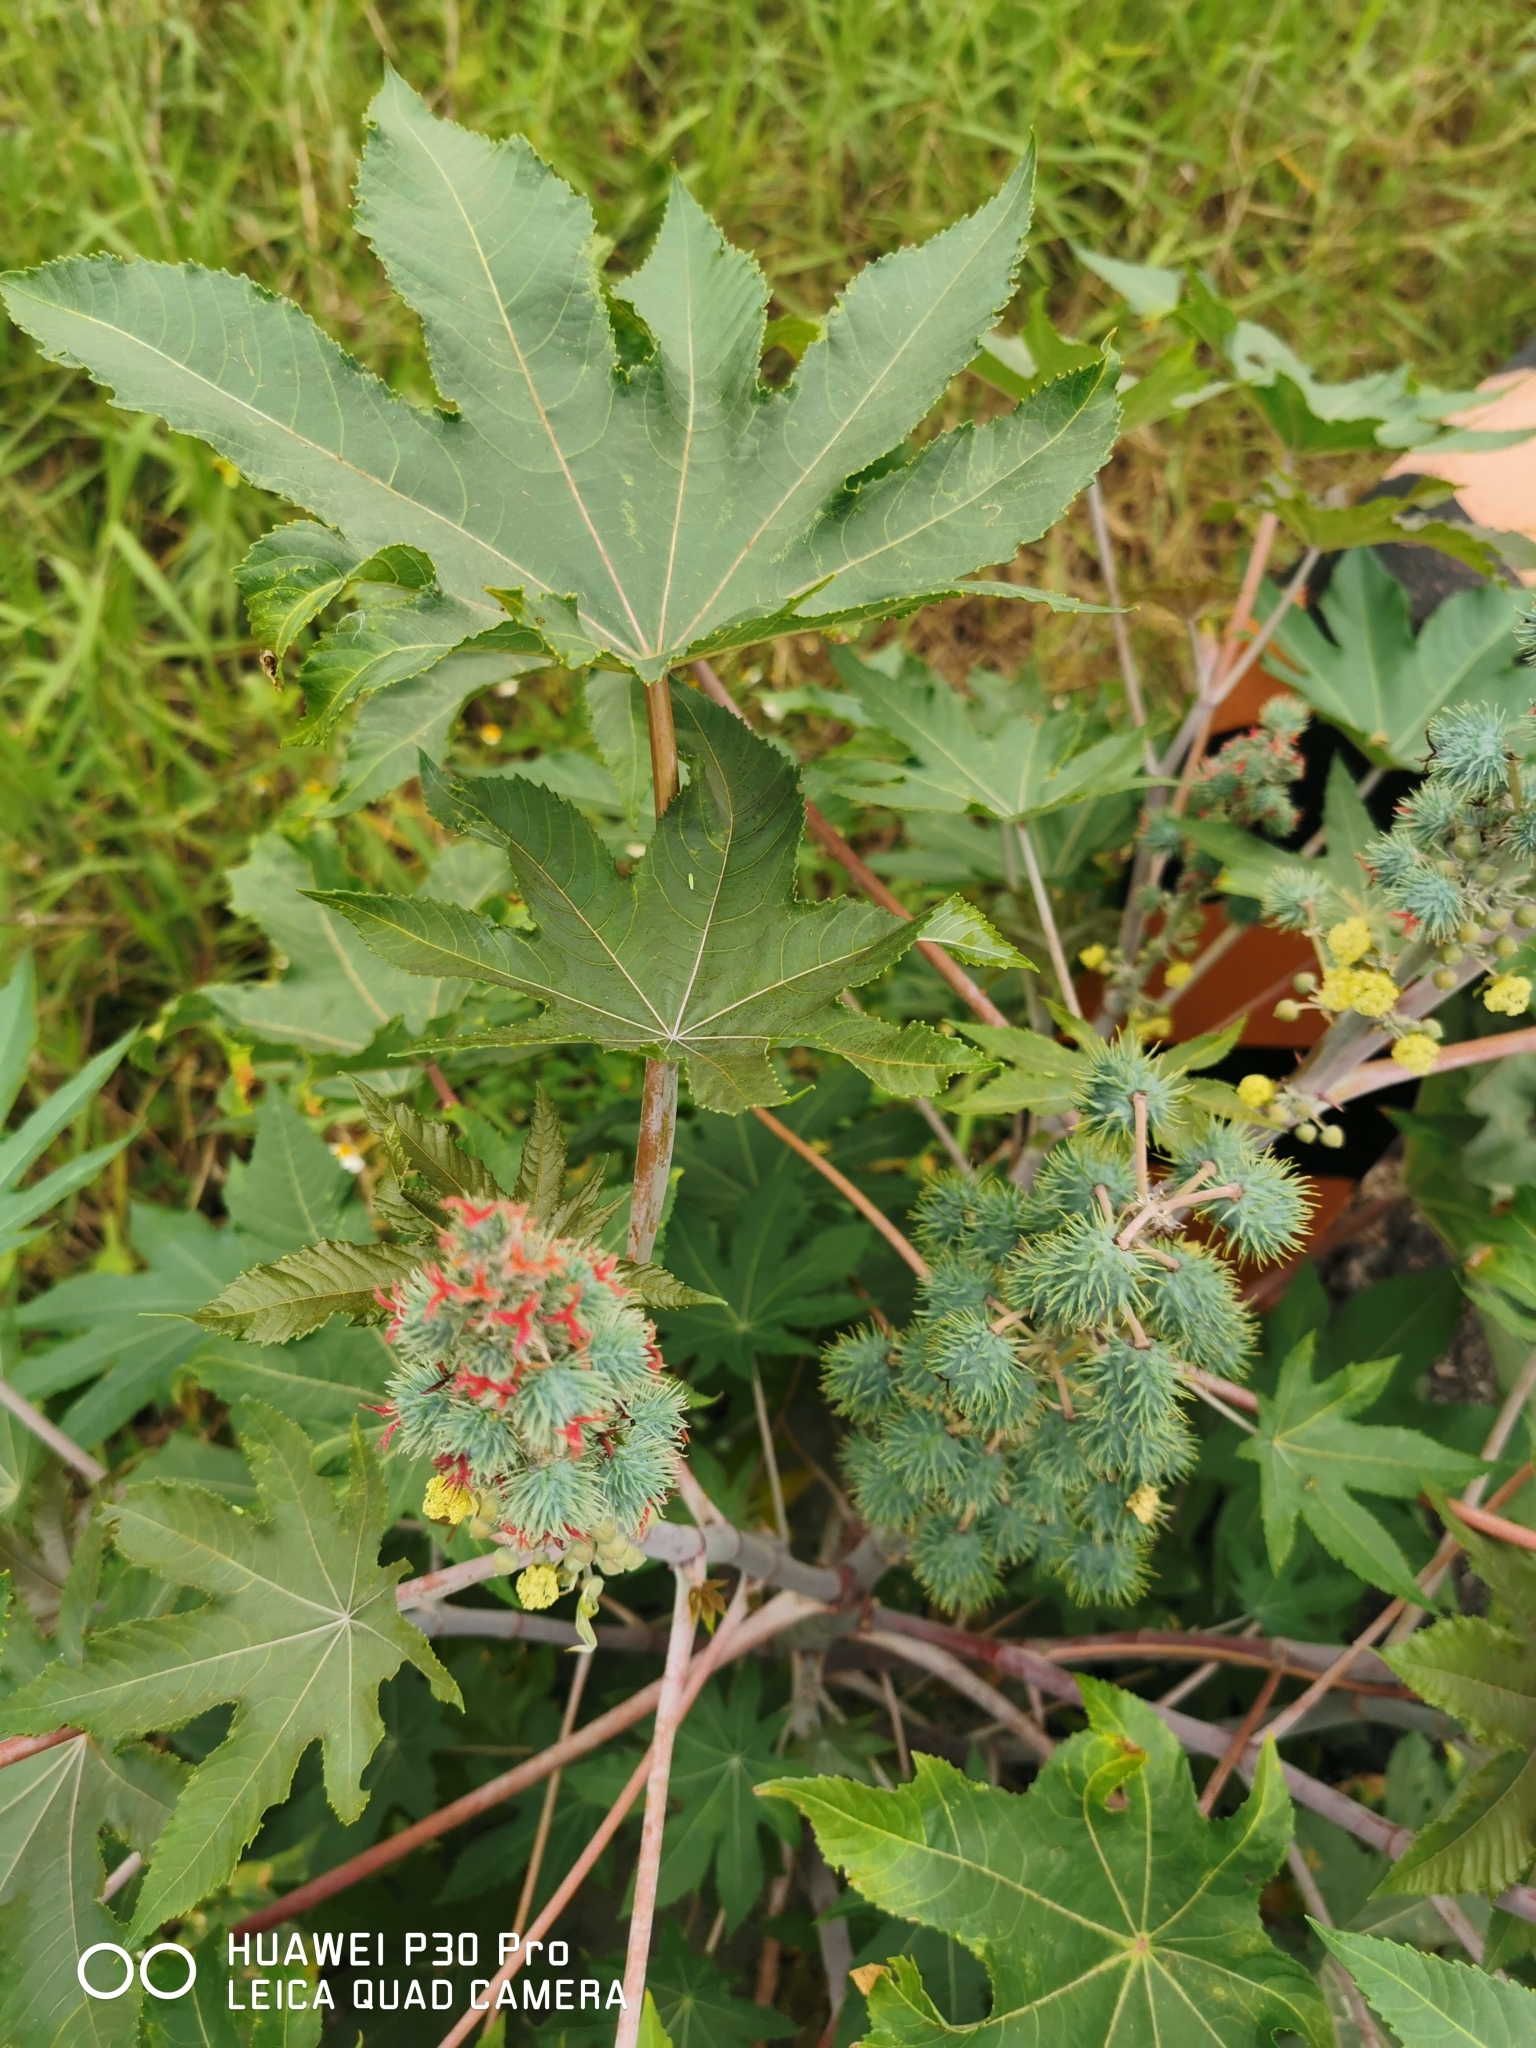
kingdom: Plantae
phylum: Tracheophyta
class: Magnoliopsida
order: Malpighiales
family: Euphorbiaceae
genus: Ricinus
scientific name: Ricinus communis
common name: Castor-oil-plant
